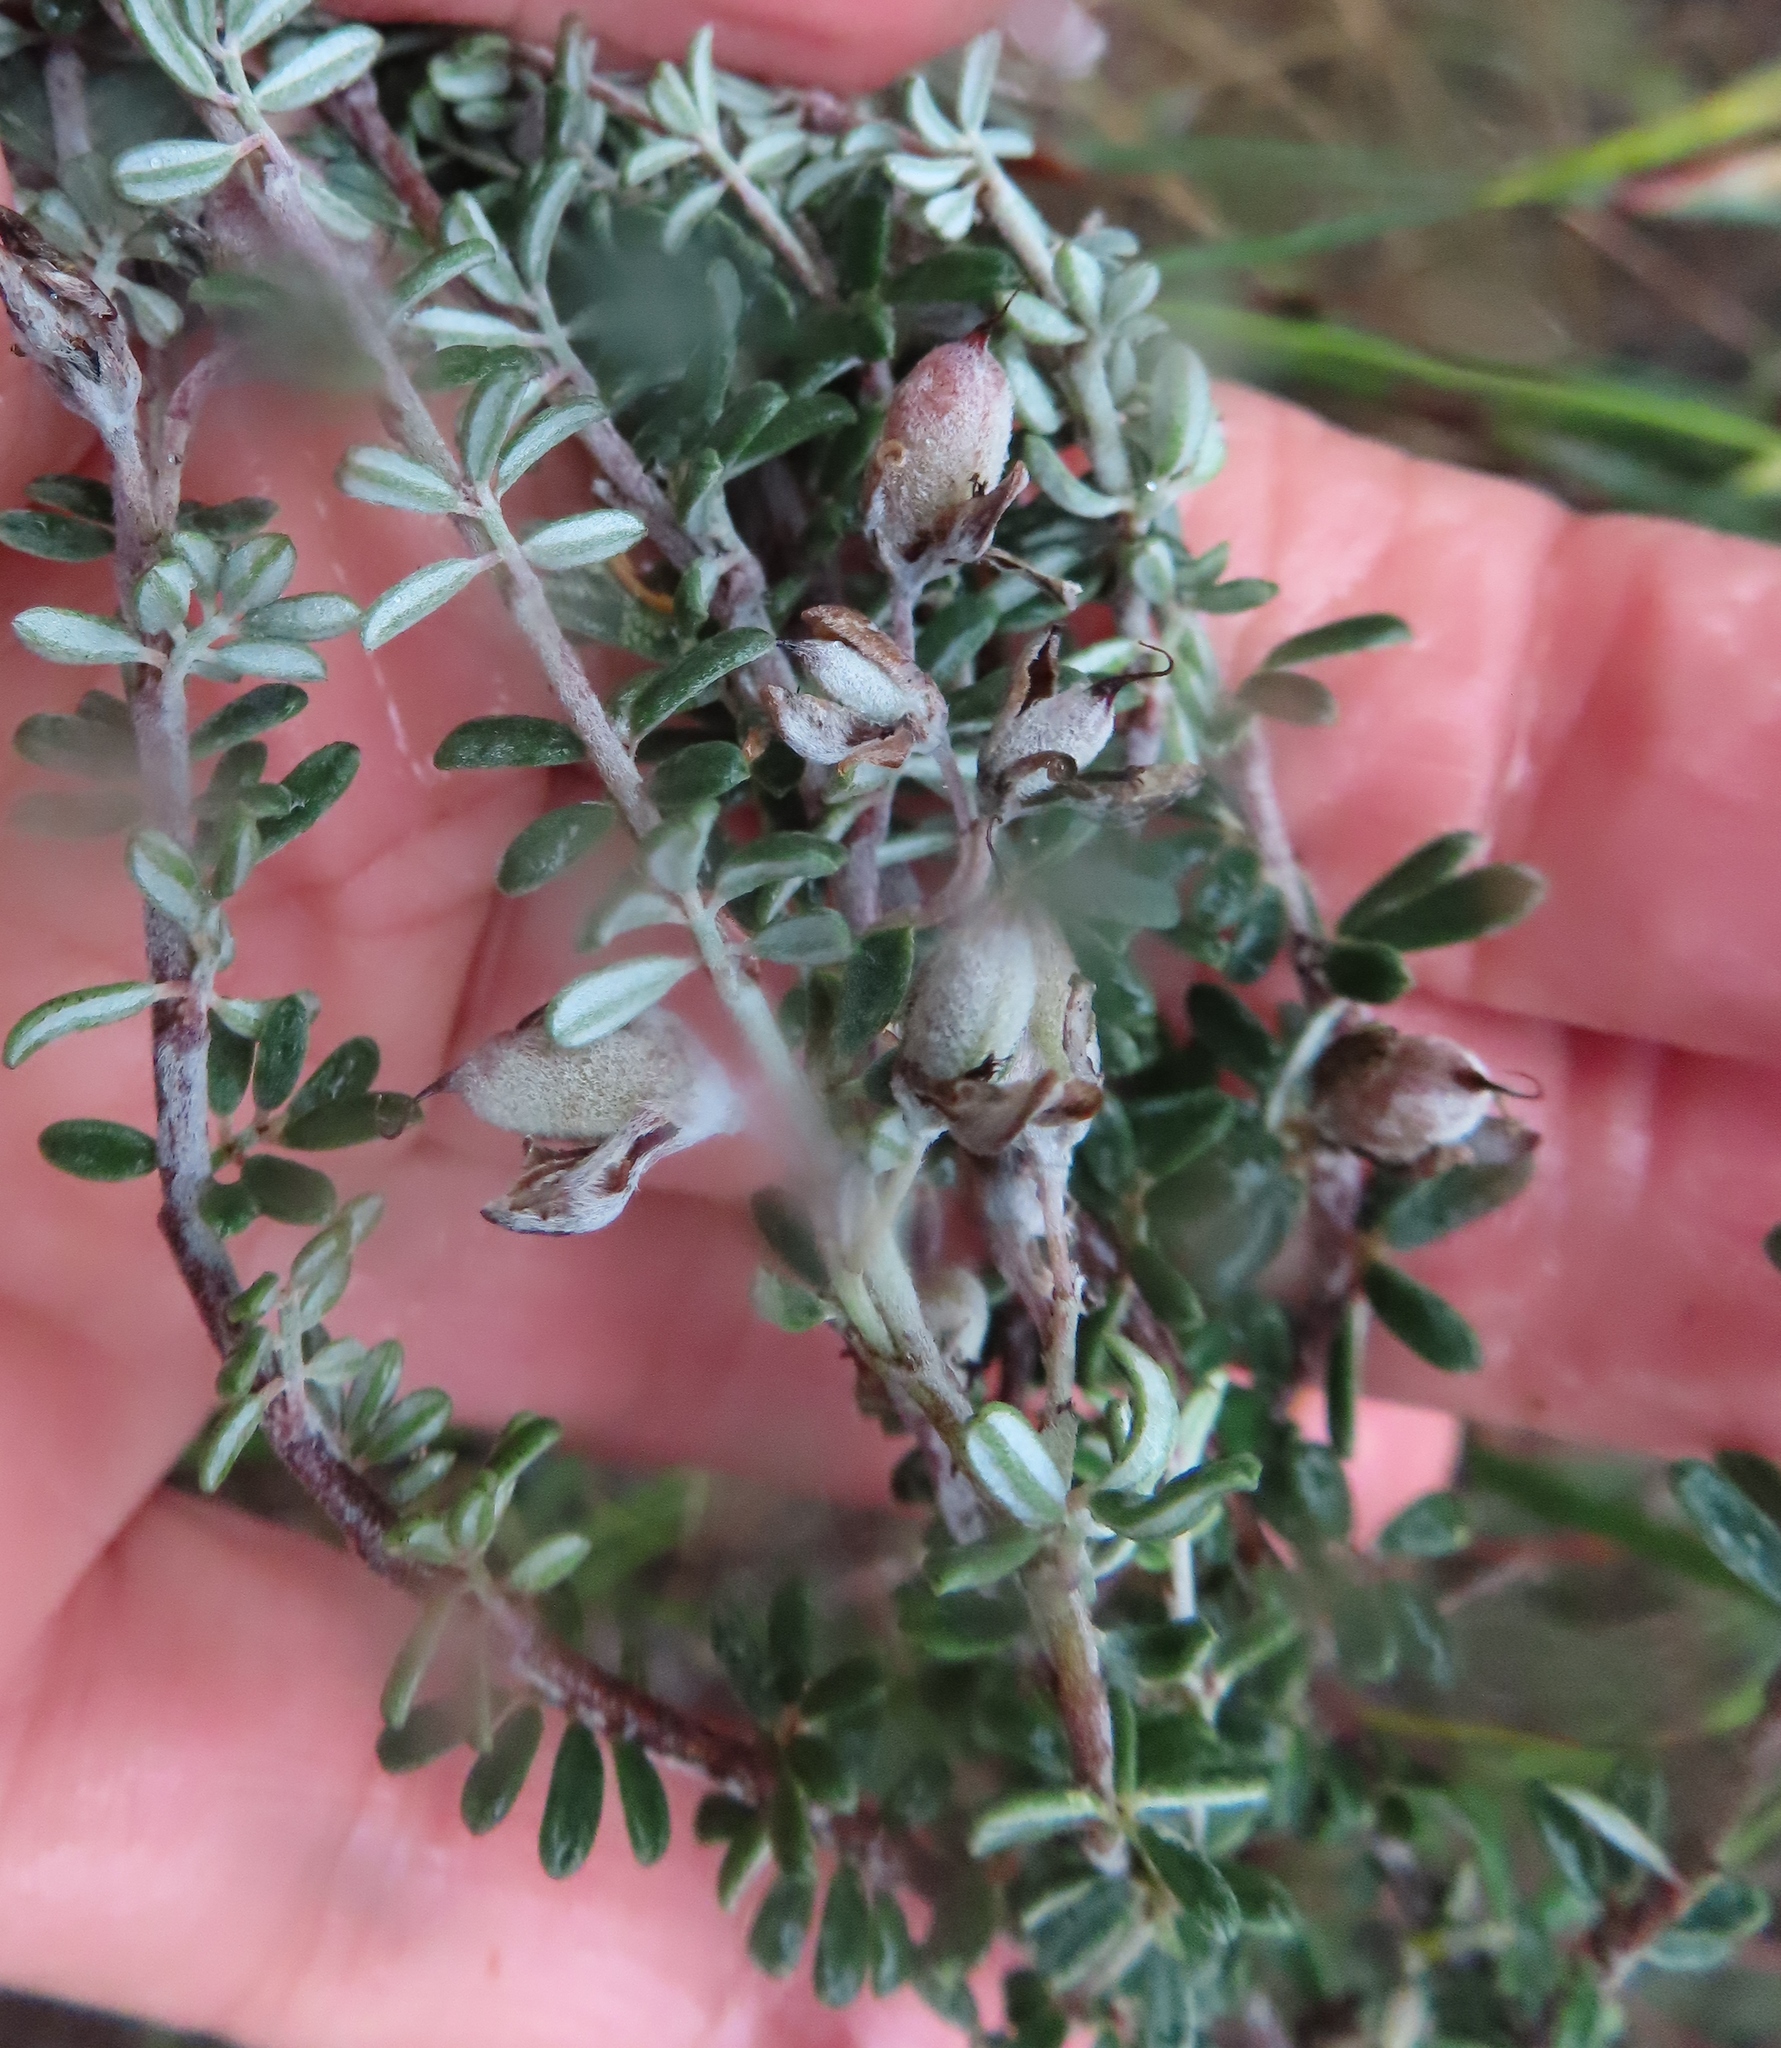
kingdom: Plantae
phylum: Tracheophyta
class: Magnoliopsida
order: Fabales
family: Fabaceae
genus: Indigofera
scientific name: Indigofera
